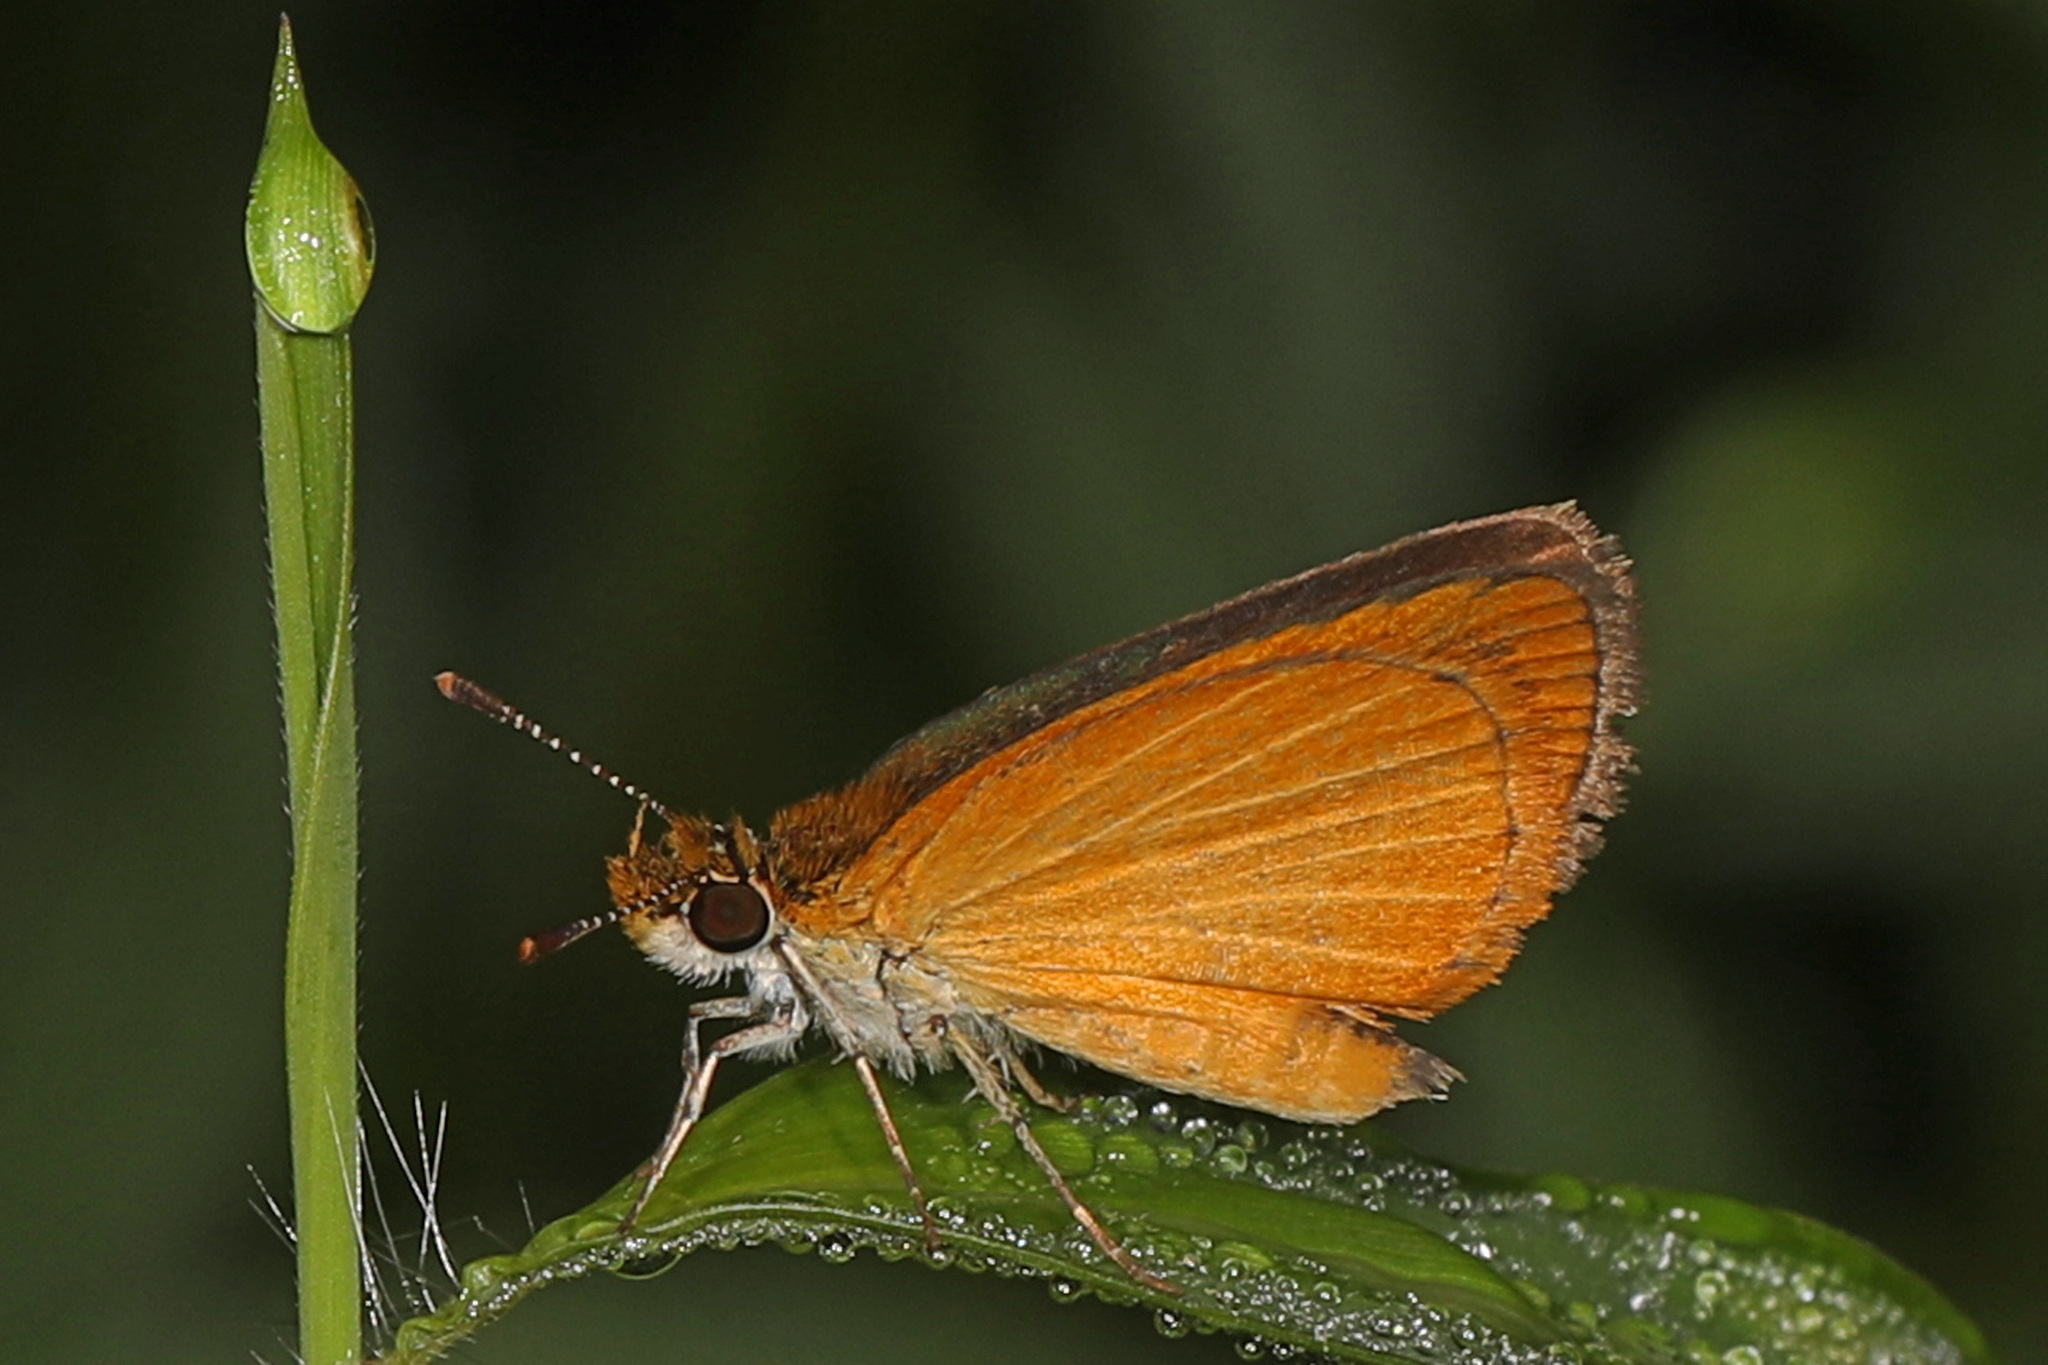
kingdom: Animalia
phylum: Arthropoda
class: Insecta
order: Lepidoptera
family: Hesperiidae
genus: Ancyloxypha
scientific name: Ancyloxypha numitor
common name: Least skipper
